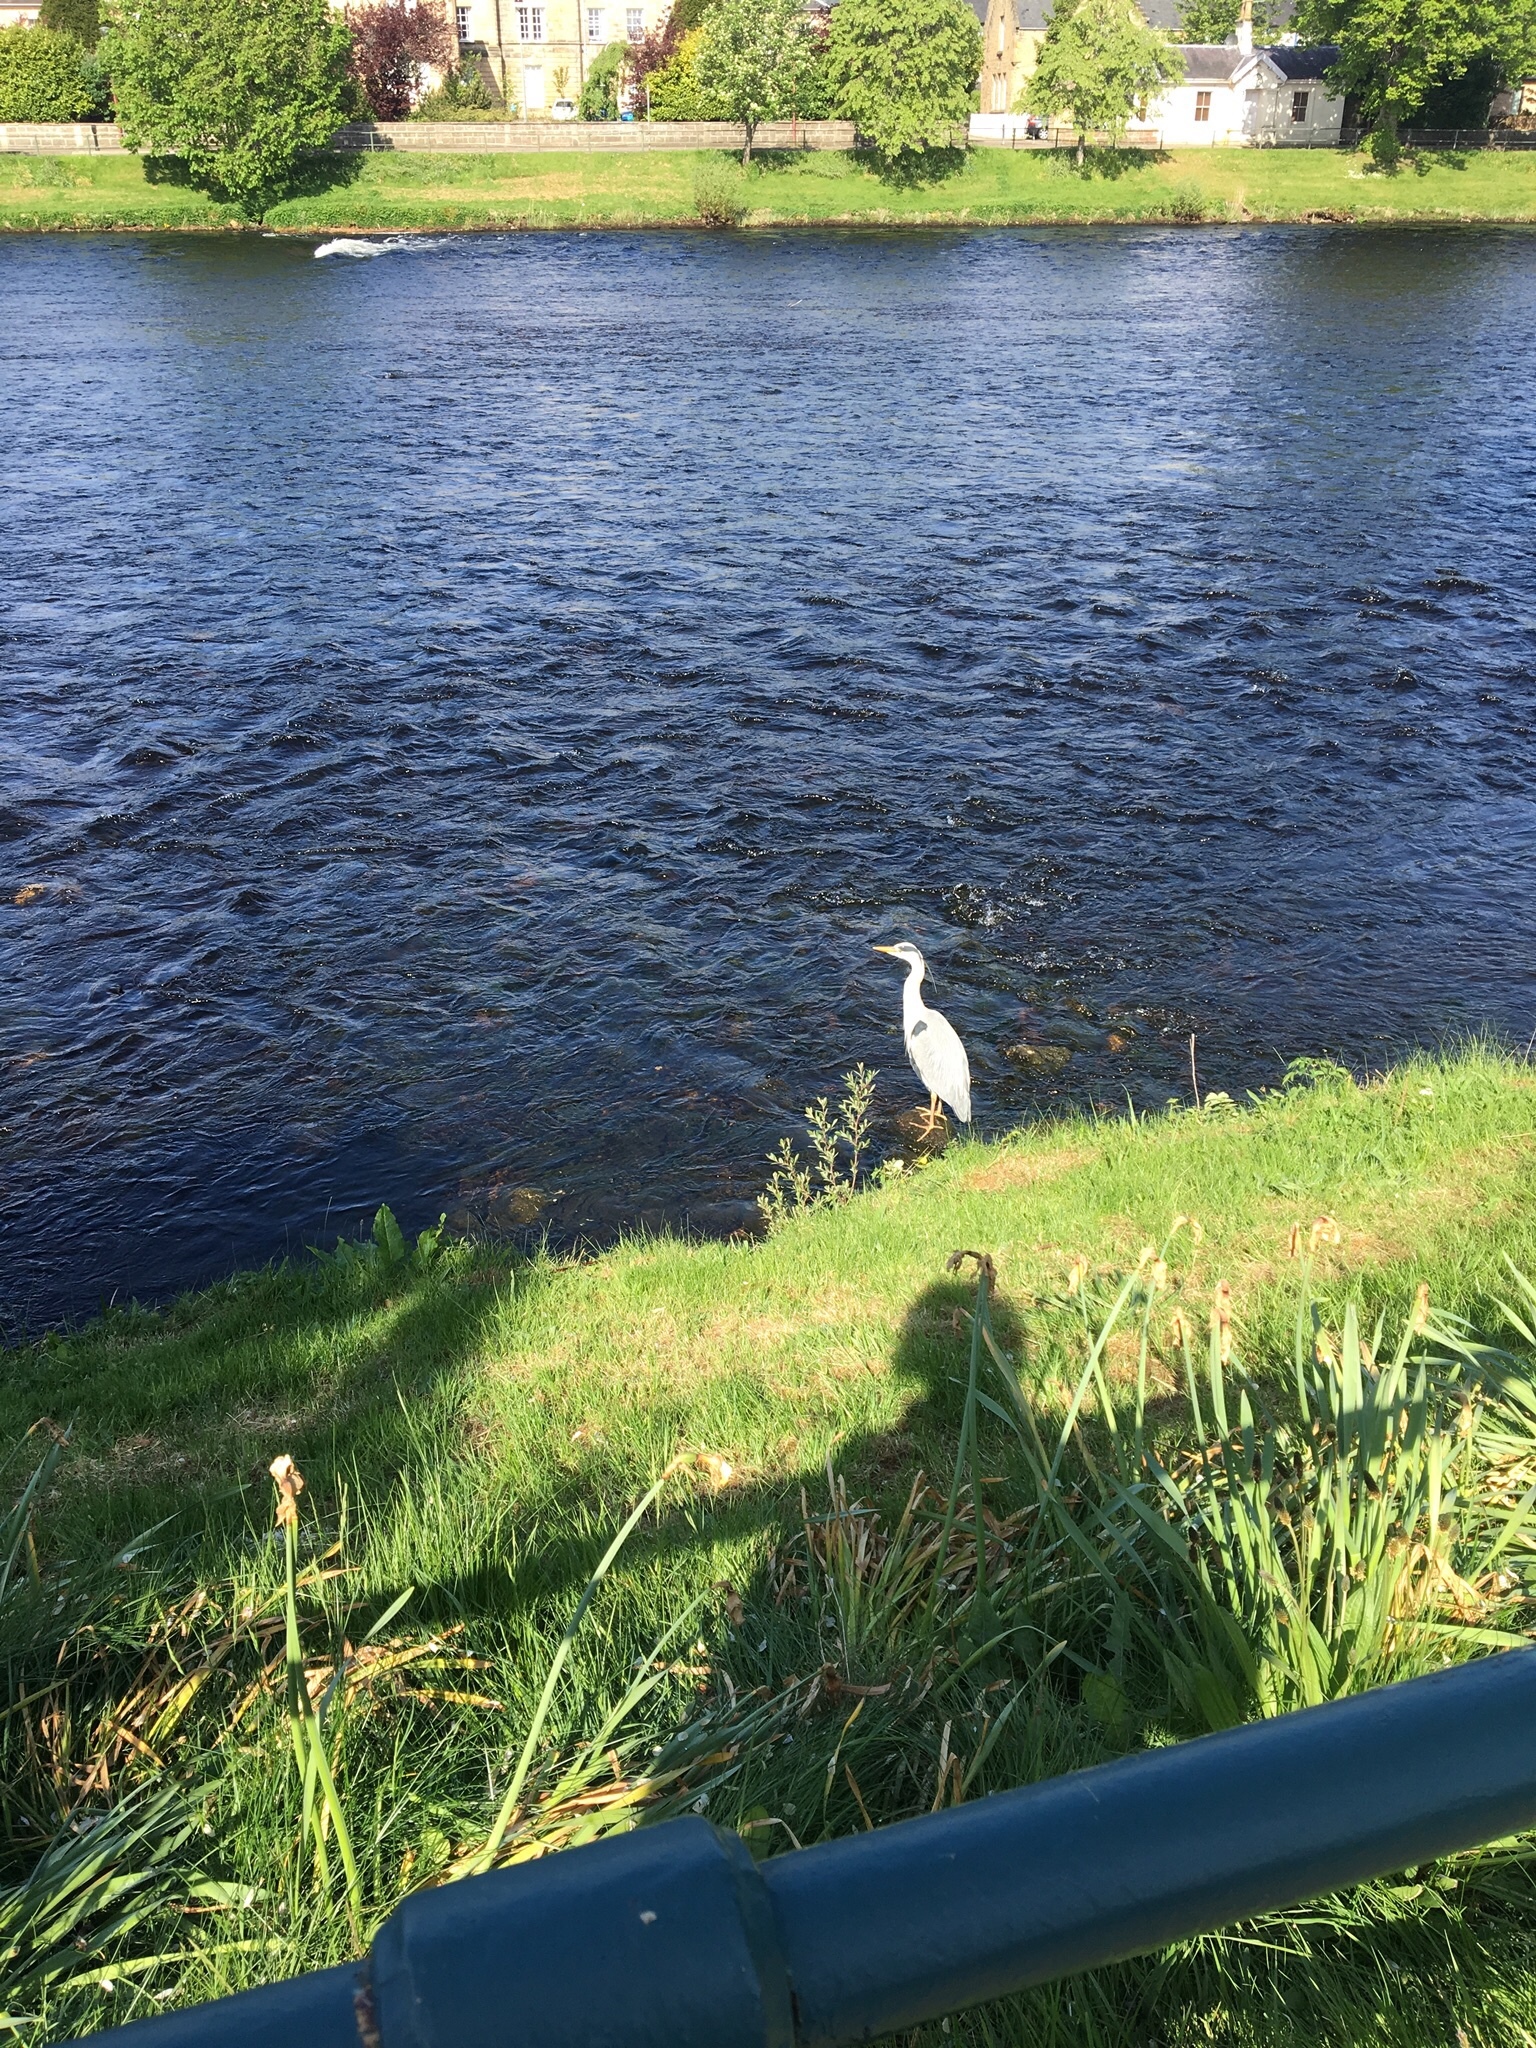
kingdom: Animalia
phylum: Chordata
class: Aves
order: Pelecaniformes
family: Ardeidae
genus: Ardea
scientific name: Ardea cinerea
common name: Grey heron
